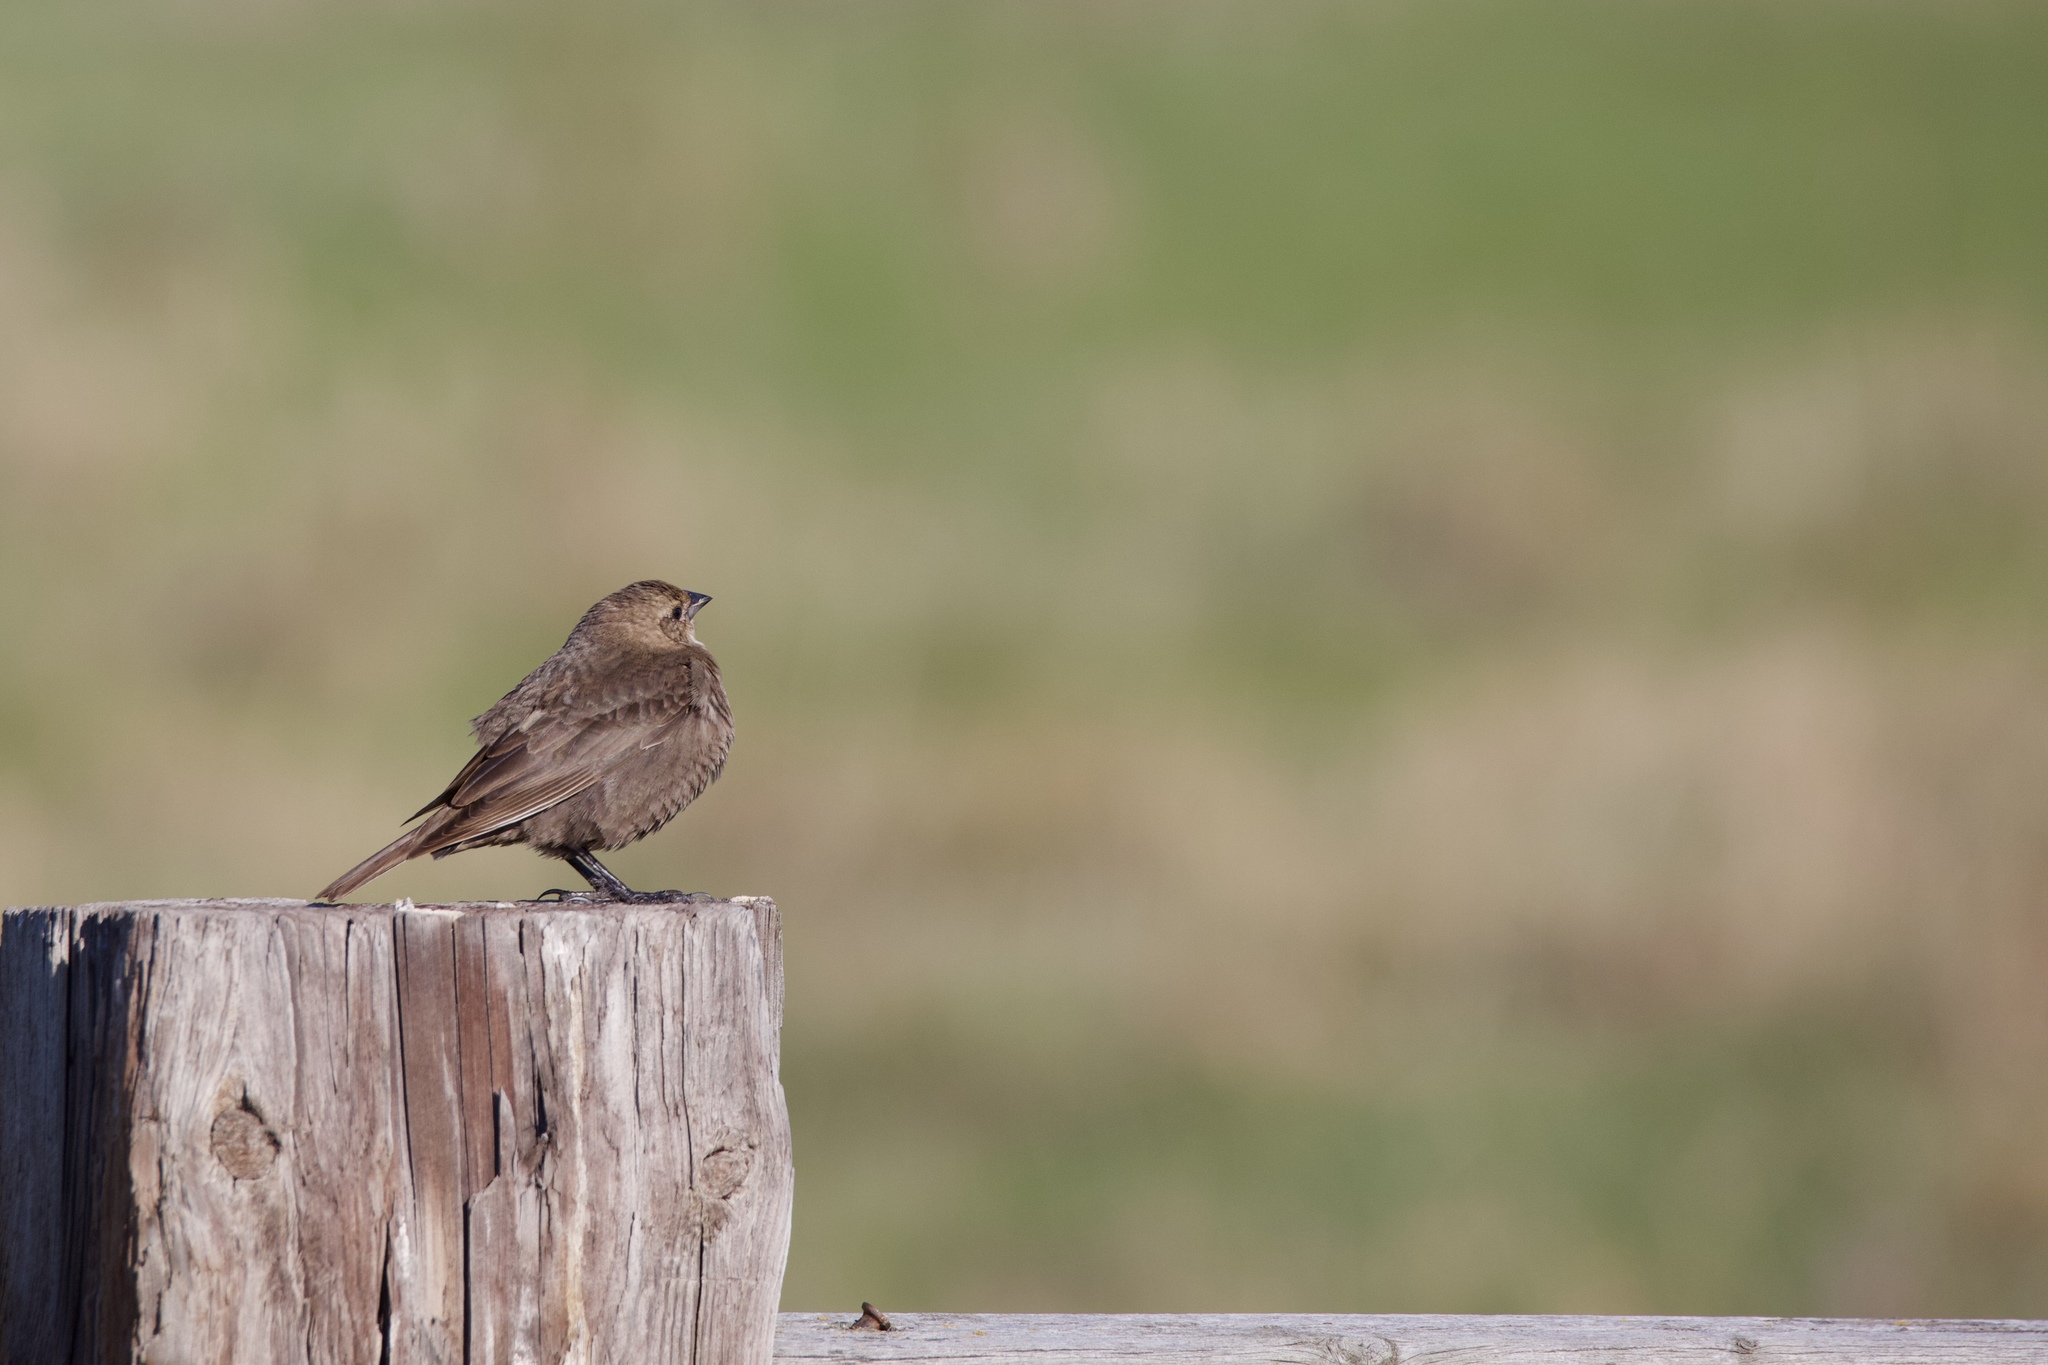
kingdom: Animalia
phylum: Chordata
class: Aves
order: Passeriformes
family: Icteridae
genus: Molothrus
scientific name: Molothrus ater
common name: Brown-headed cowbird
